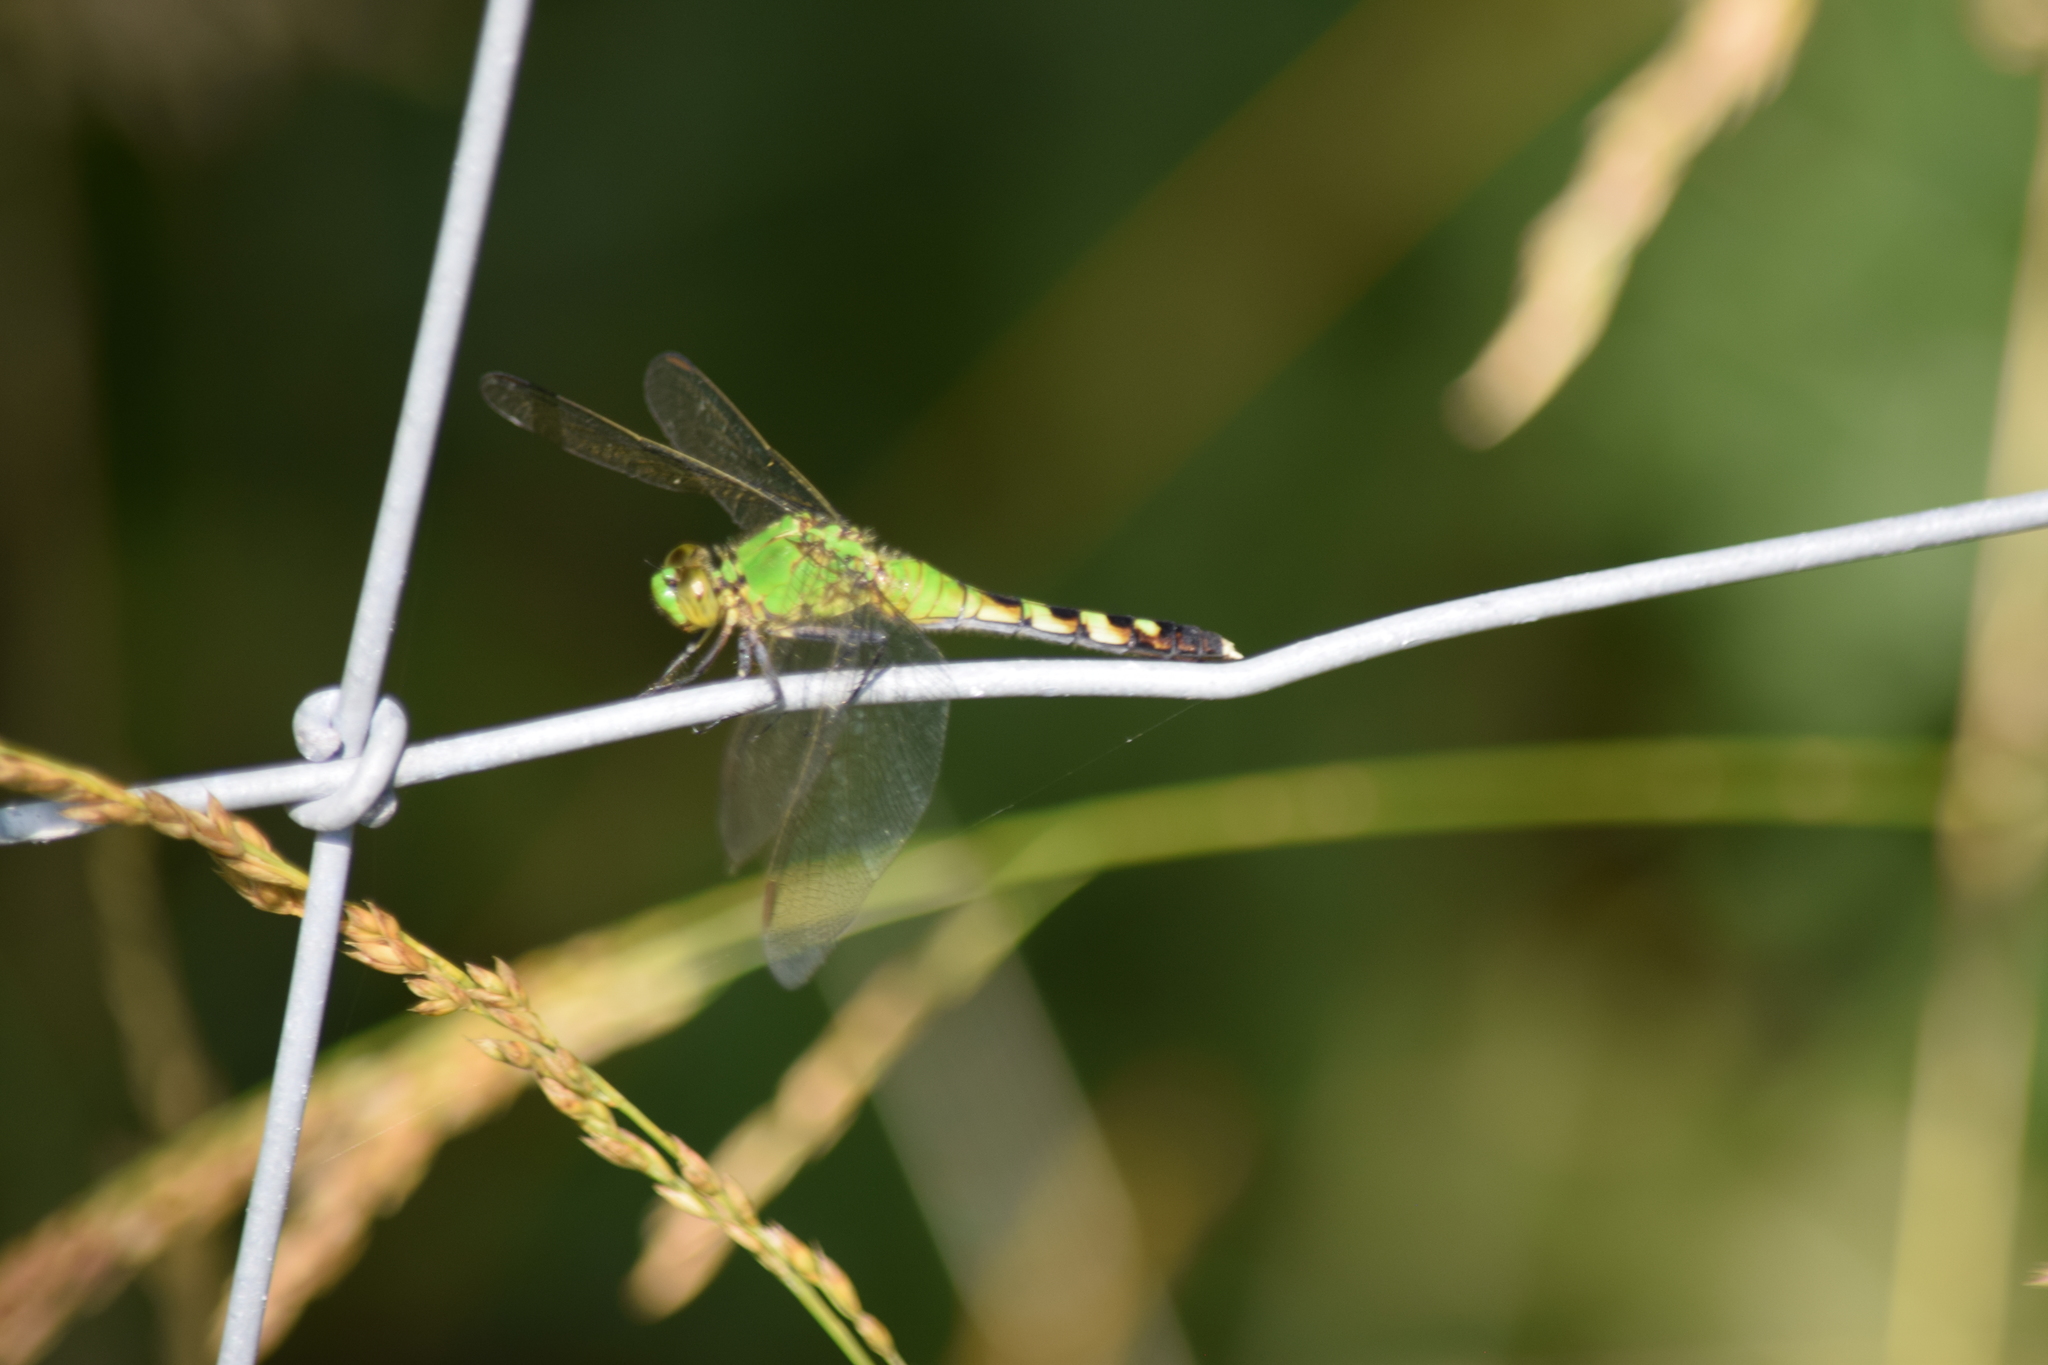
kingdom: Animalia
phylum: Arthropoda
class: Insecta
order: Odonata
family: Libellulidae
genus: Erythemis
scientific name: Erythemis simplicicollis
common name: Eastern pondhawk
